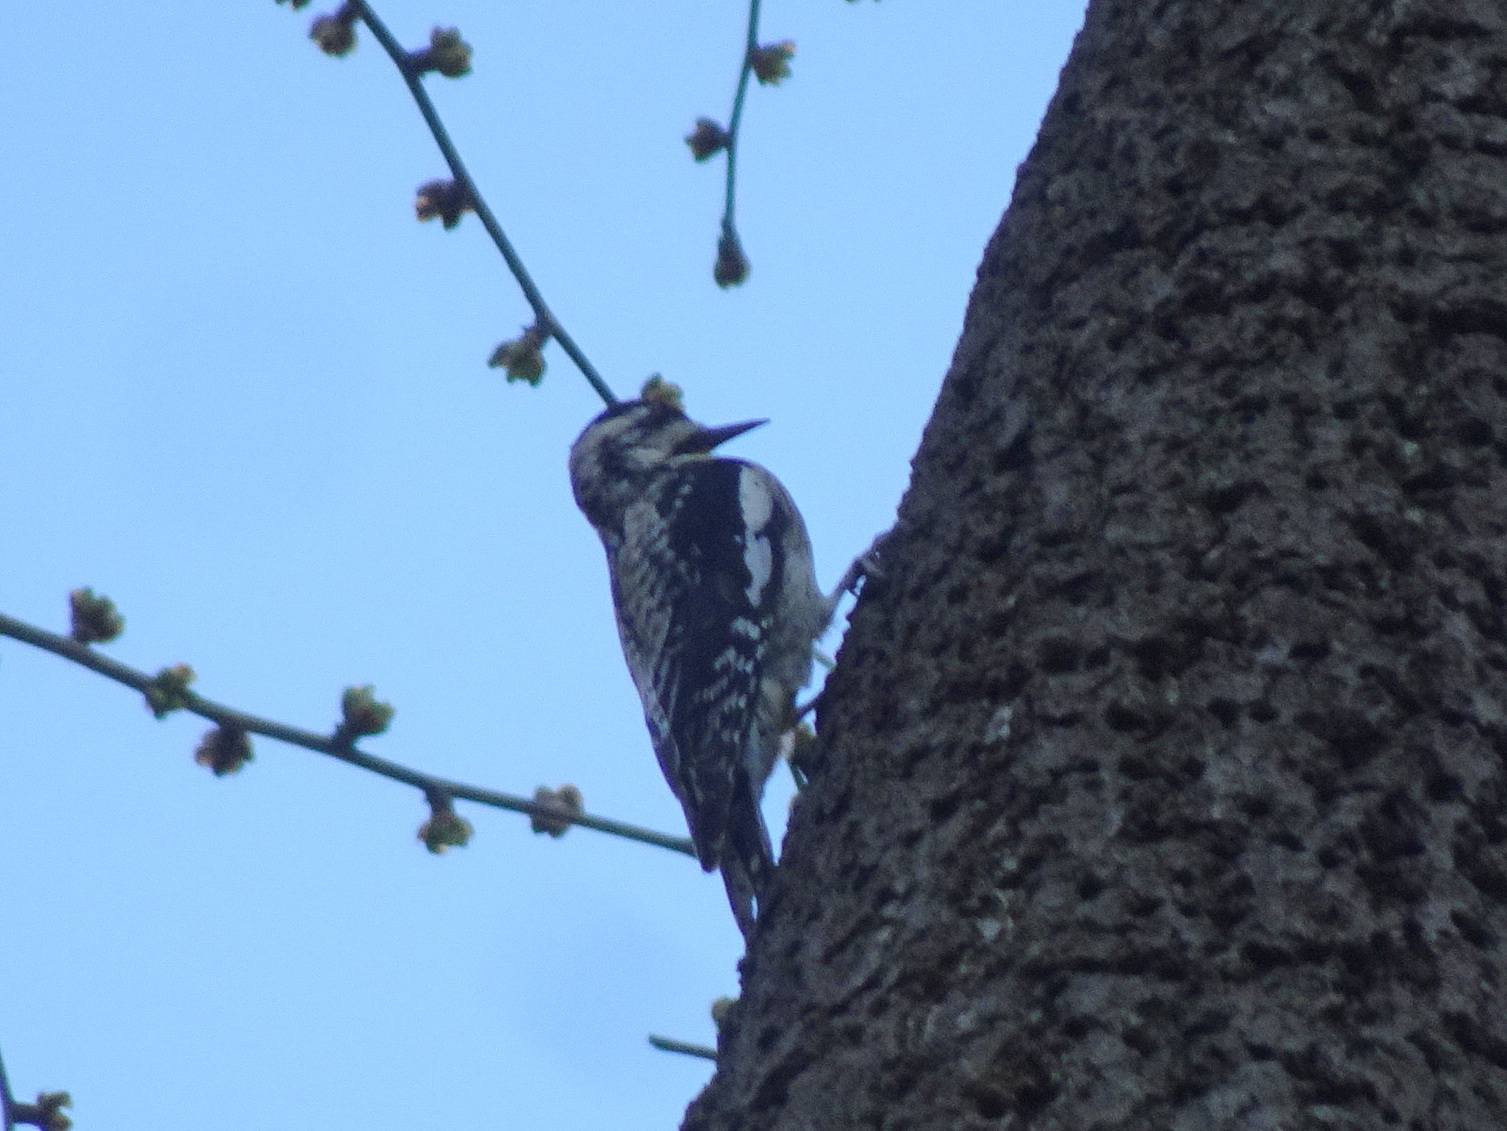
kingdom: Animalia
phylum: Chordata
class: Aves
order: Piciformes
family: Picidae
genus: Sphyrapicus
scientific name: Sphyrapicus varius
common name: Yellow-bellied sapsucker
